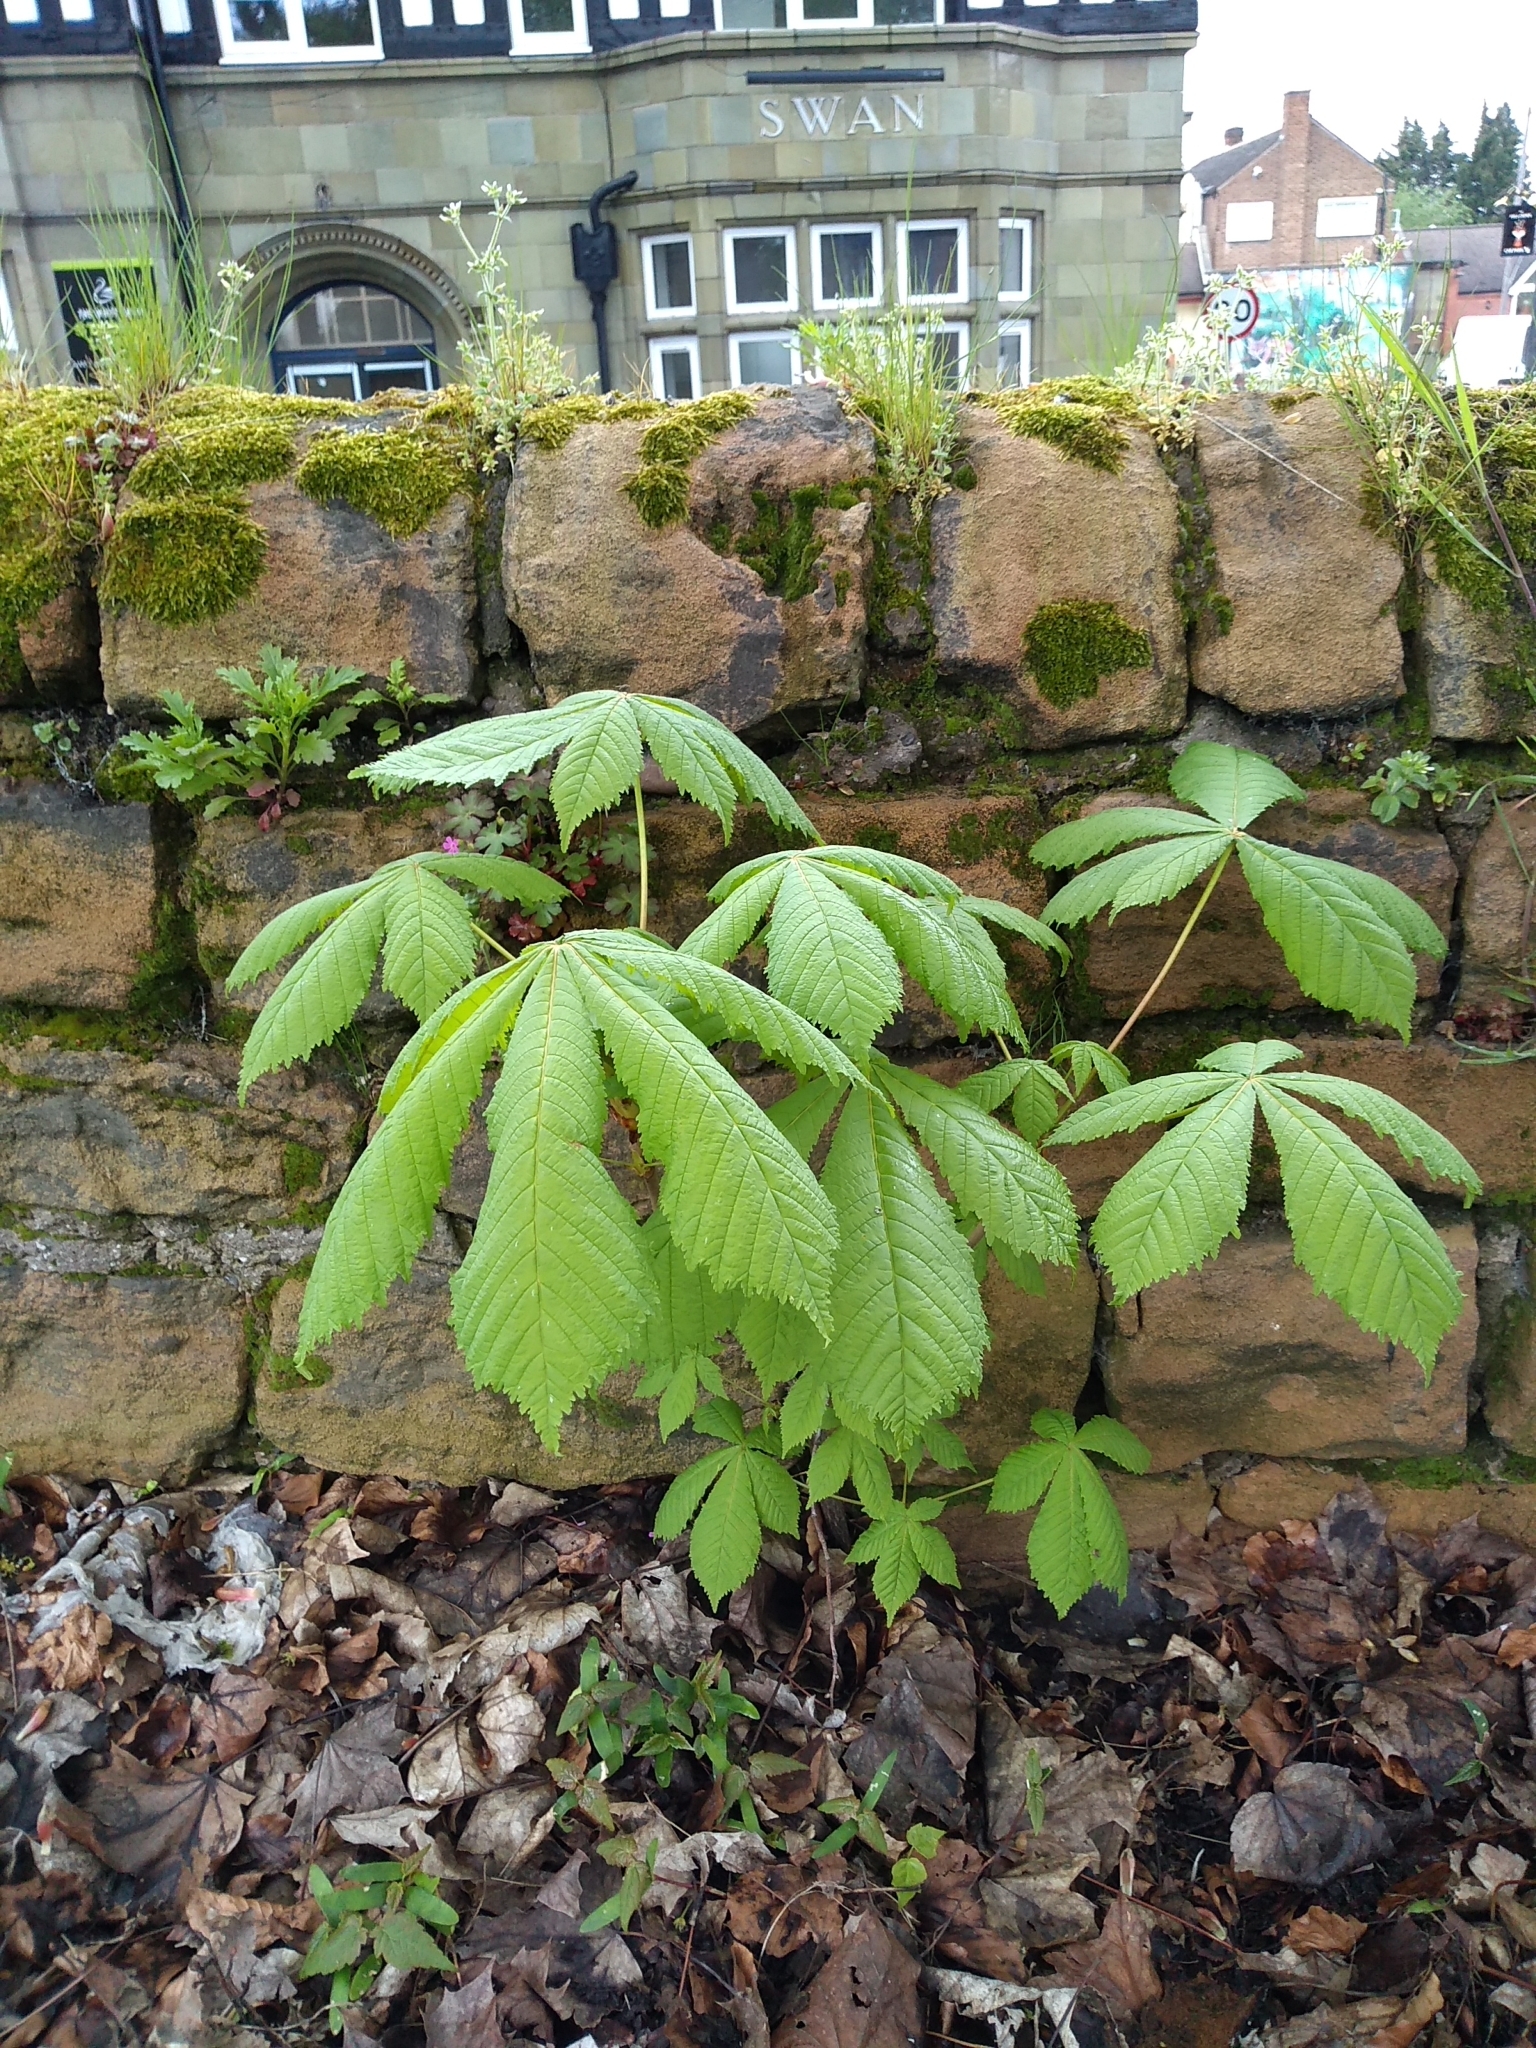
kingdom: Plantae
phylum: Tracheophyta
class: Magnoliopsida
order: Sapindales
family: Sapindaceae
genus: Aesculus
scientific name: Aesculus hippocastanum
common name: Horse-chestnut
